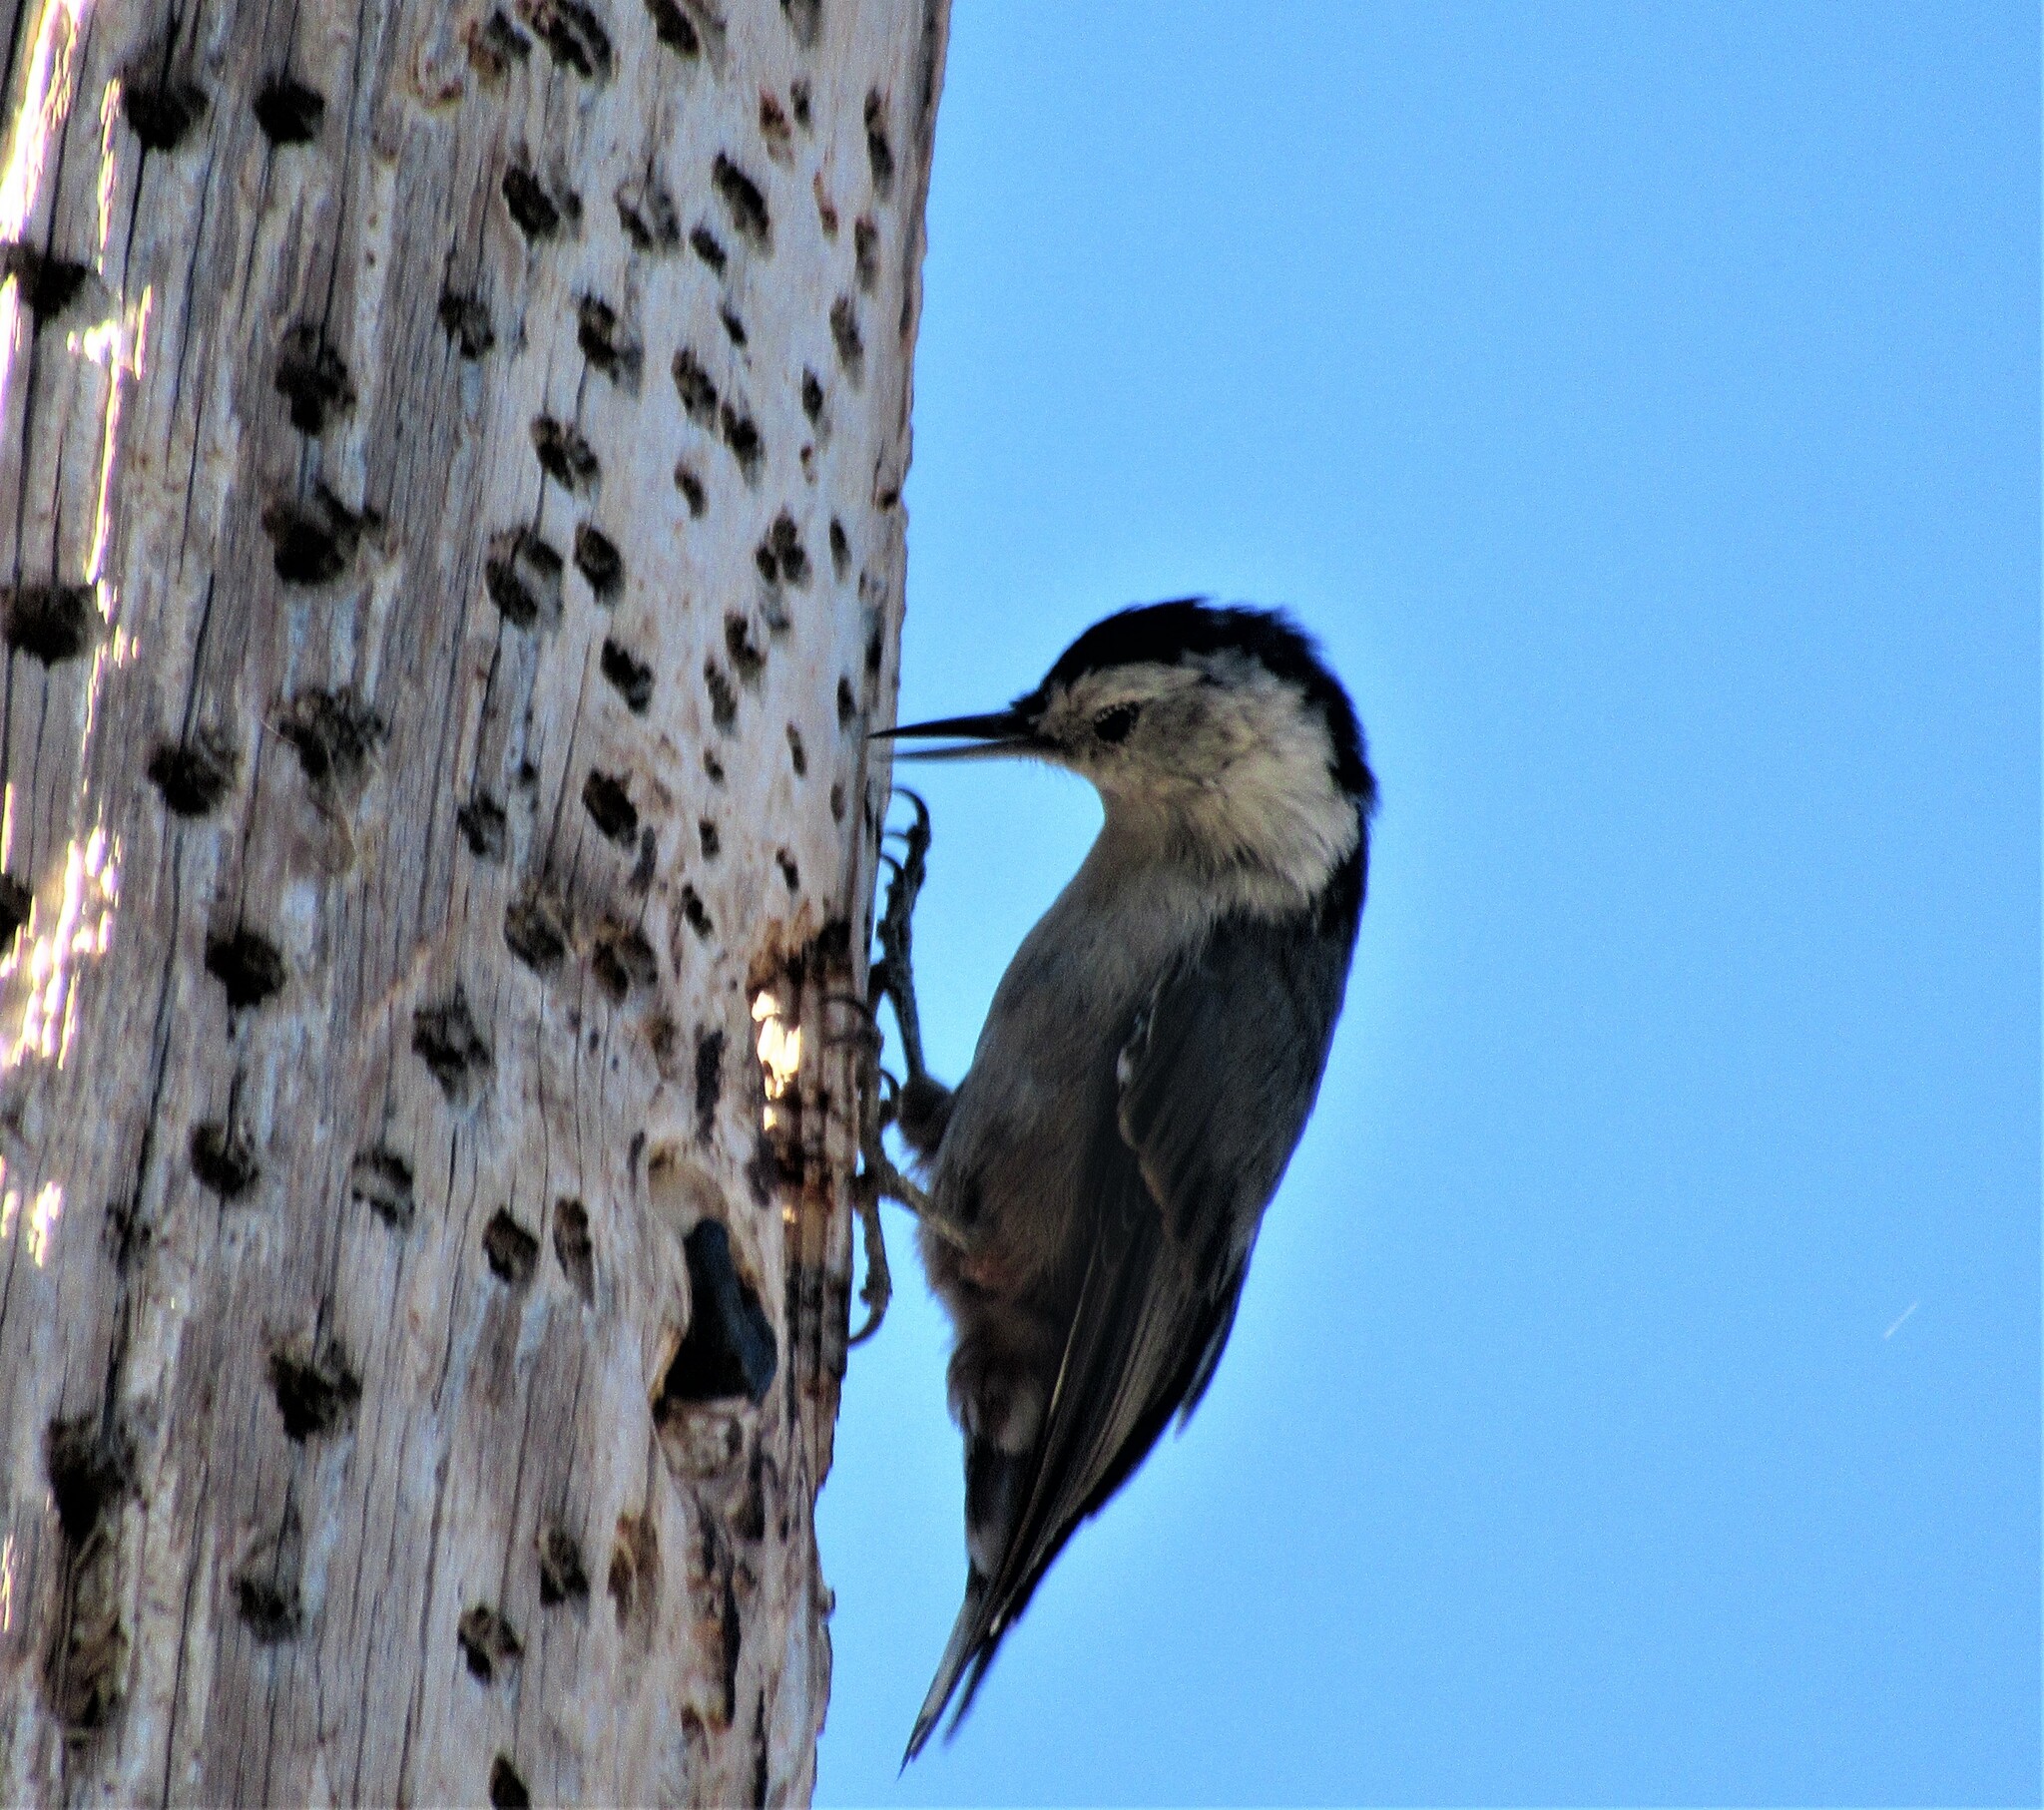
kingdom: Animalia
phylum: Chordata
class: Aves
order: Passeriformes
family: Sittidae
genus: Sitta
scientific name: Sitta carolinensis
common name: White-breasted nuthatch
